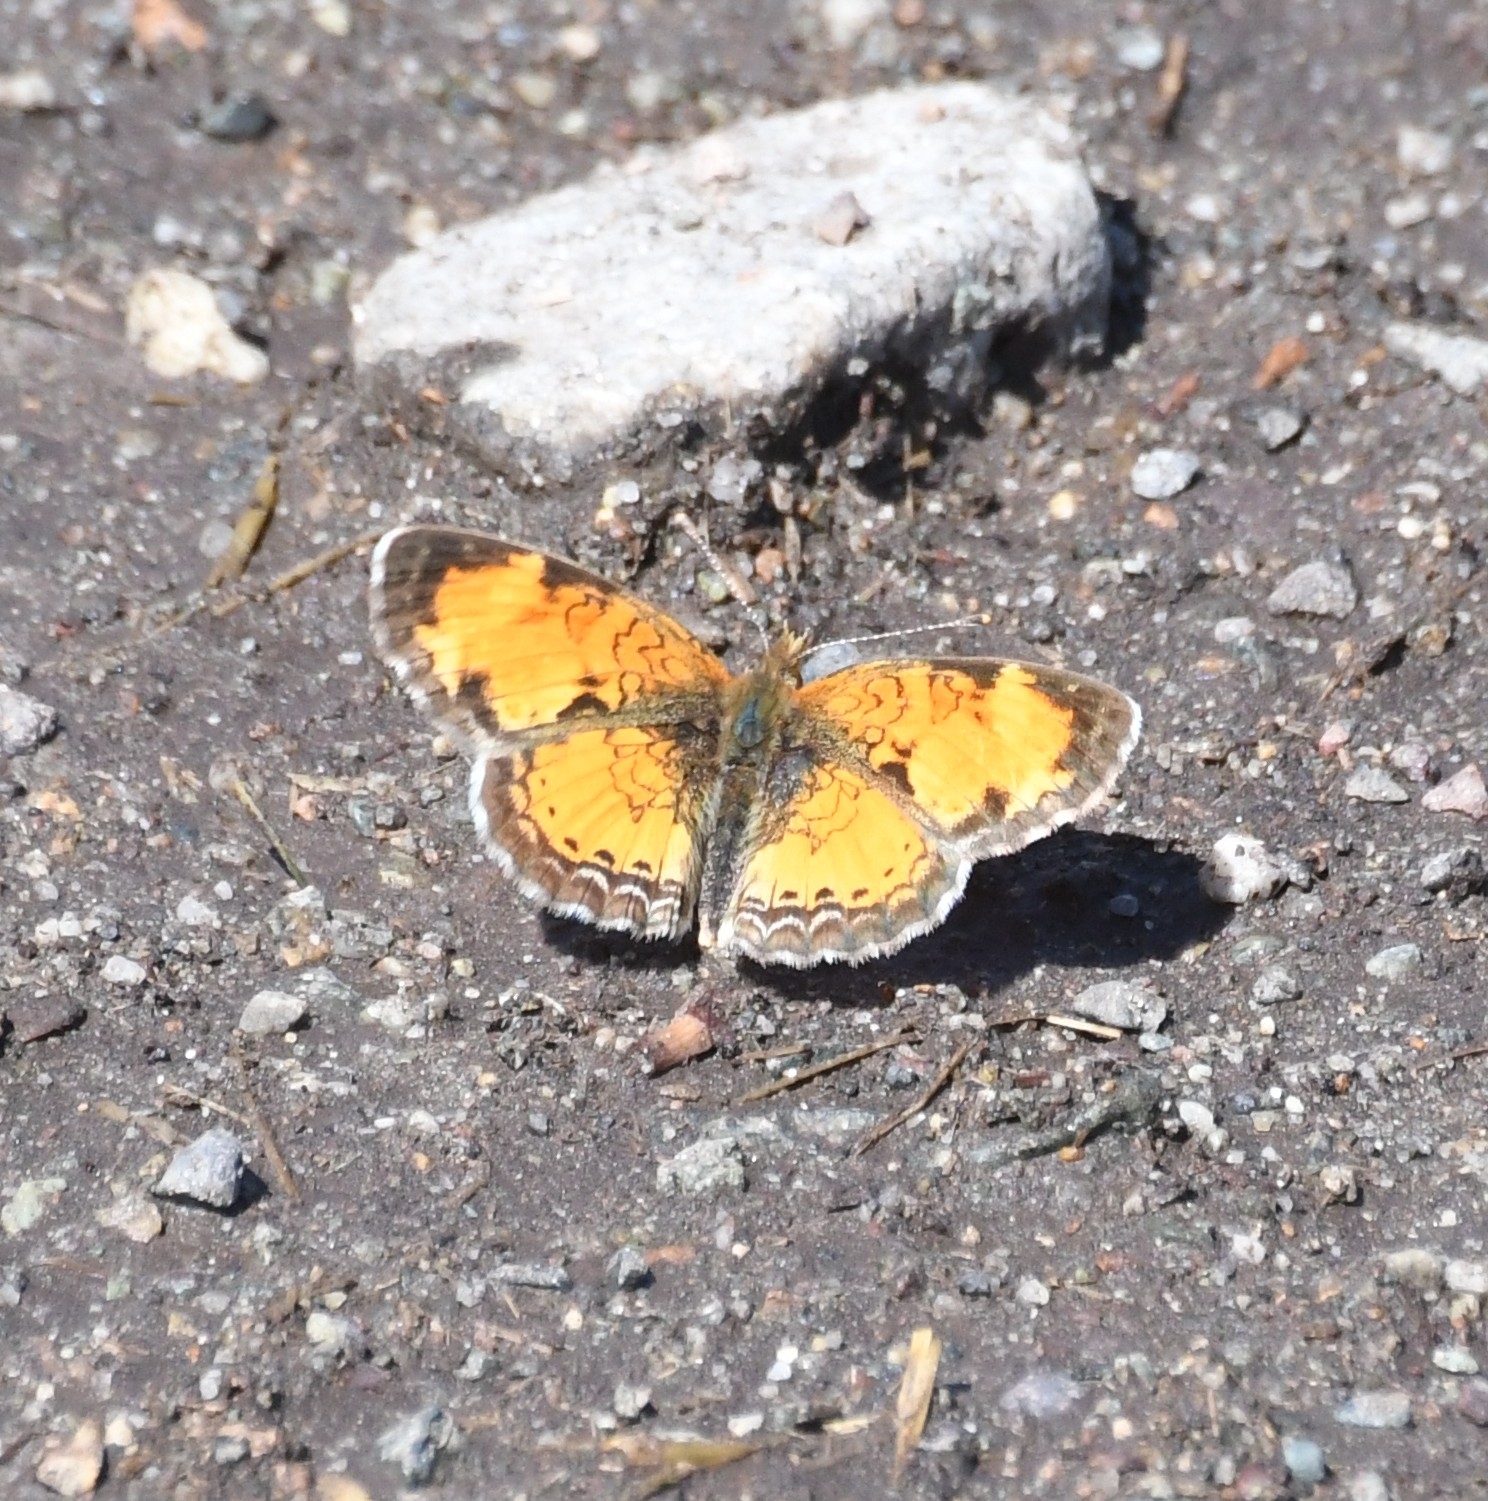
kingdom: Animalia
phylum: Arthropoda
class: Insecta
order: Lepidoptera
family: Nymphalidae
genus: Phyciodes
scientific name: Phyciodes tharos
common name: Pearl crescent
